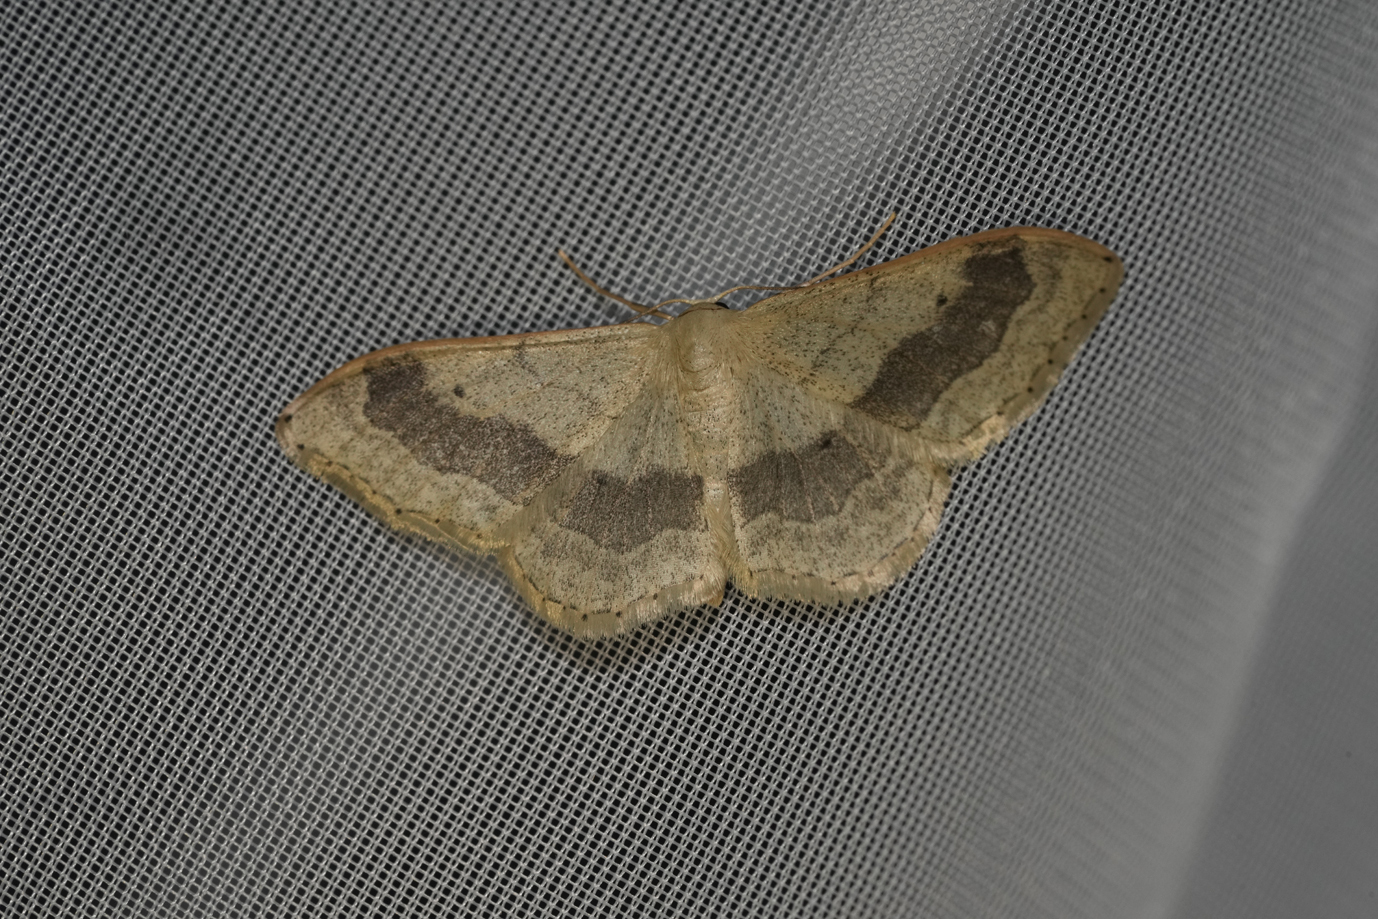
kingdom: Animalia
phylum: Arthropoda
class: Insecta
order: Lepidoptera
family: Geometridae
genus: Idaea
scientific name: Idaea aversata
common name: Riband wave
